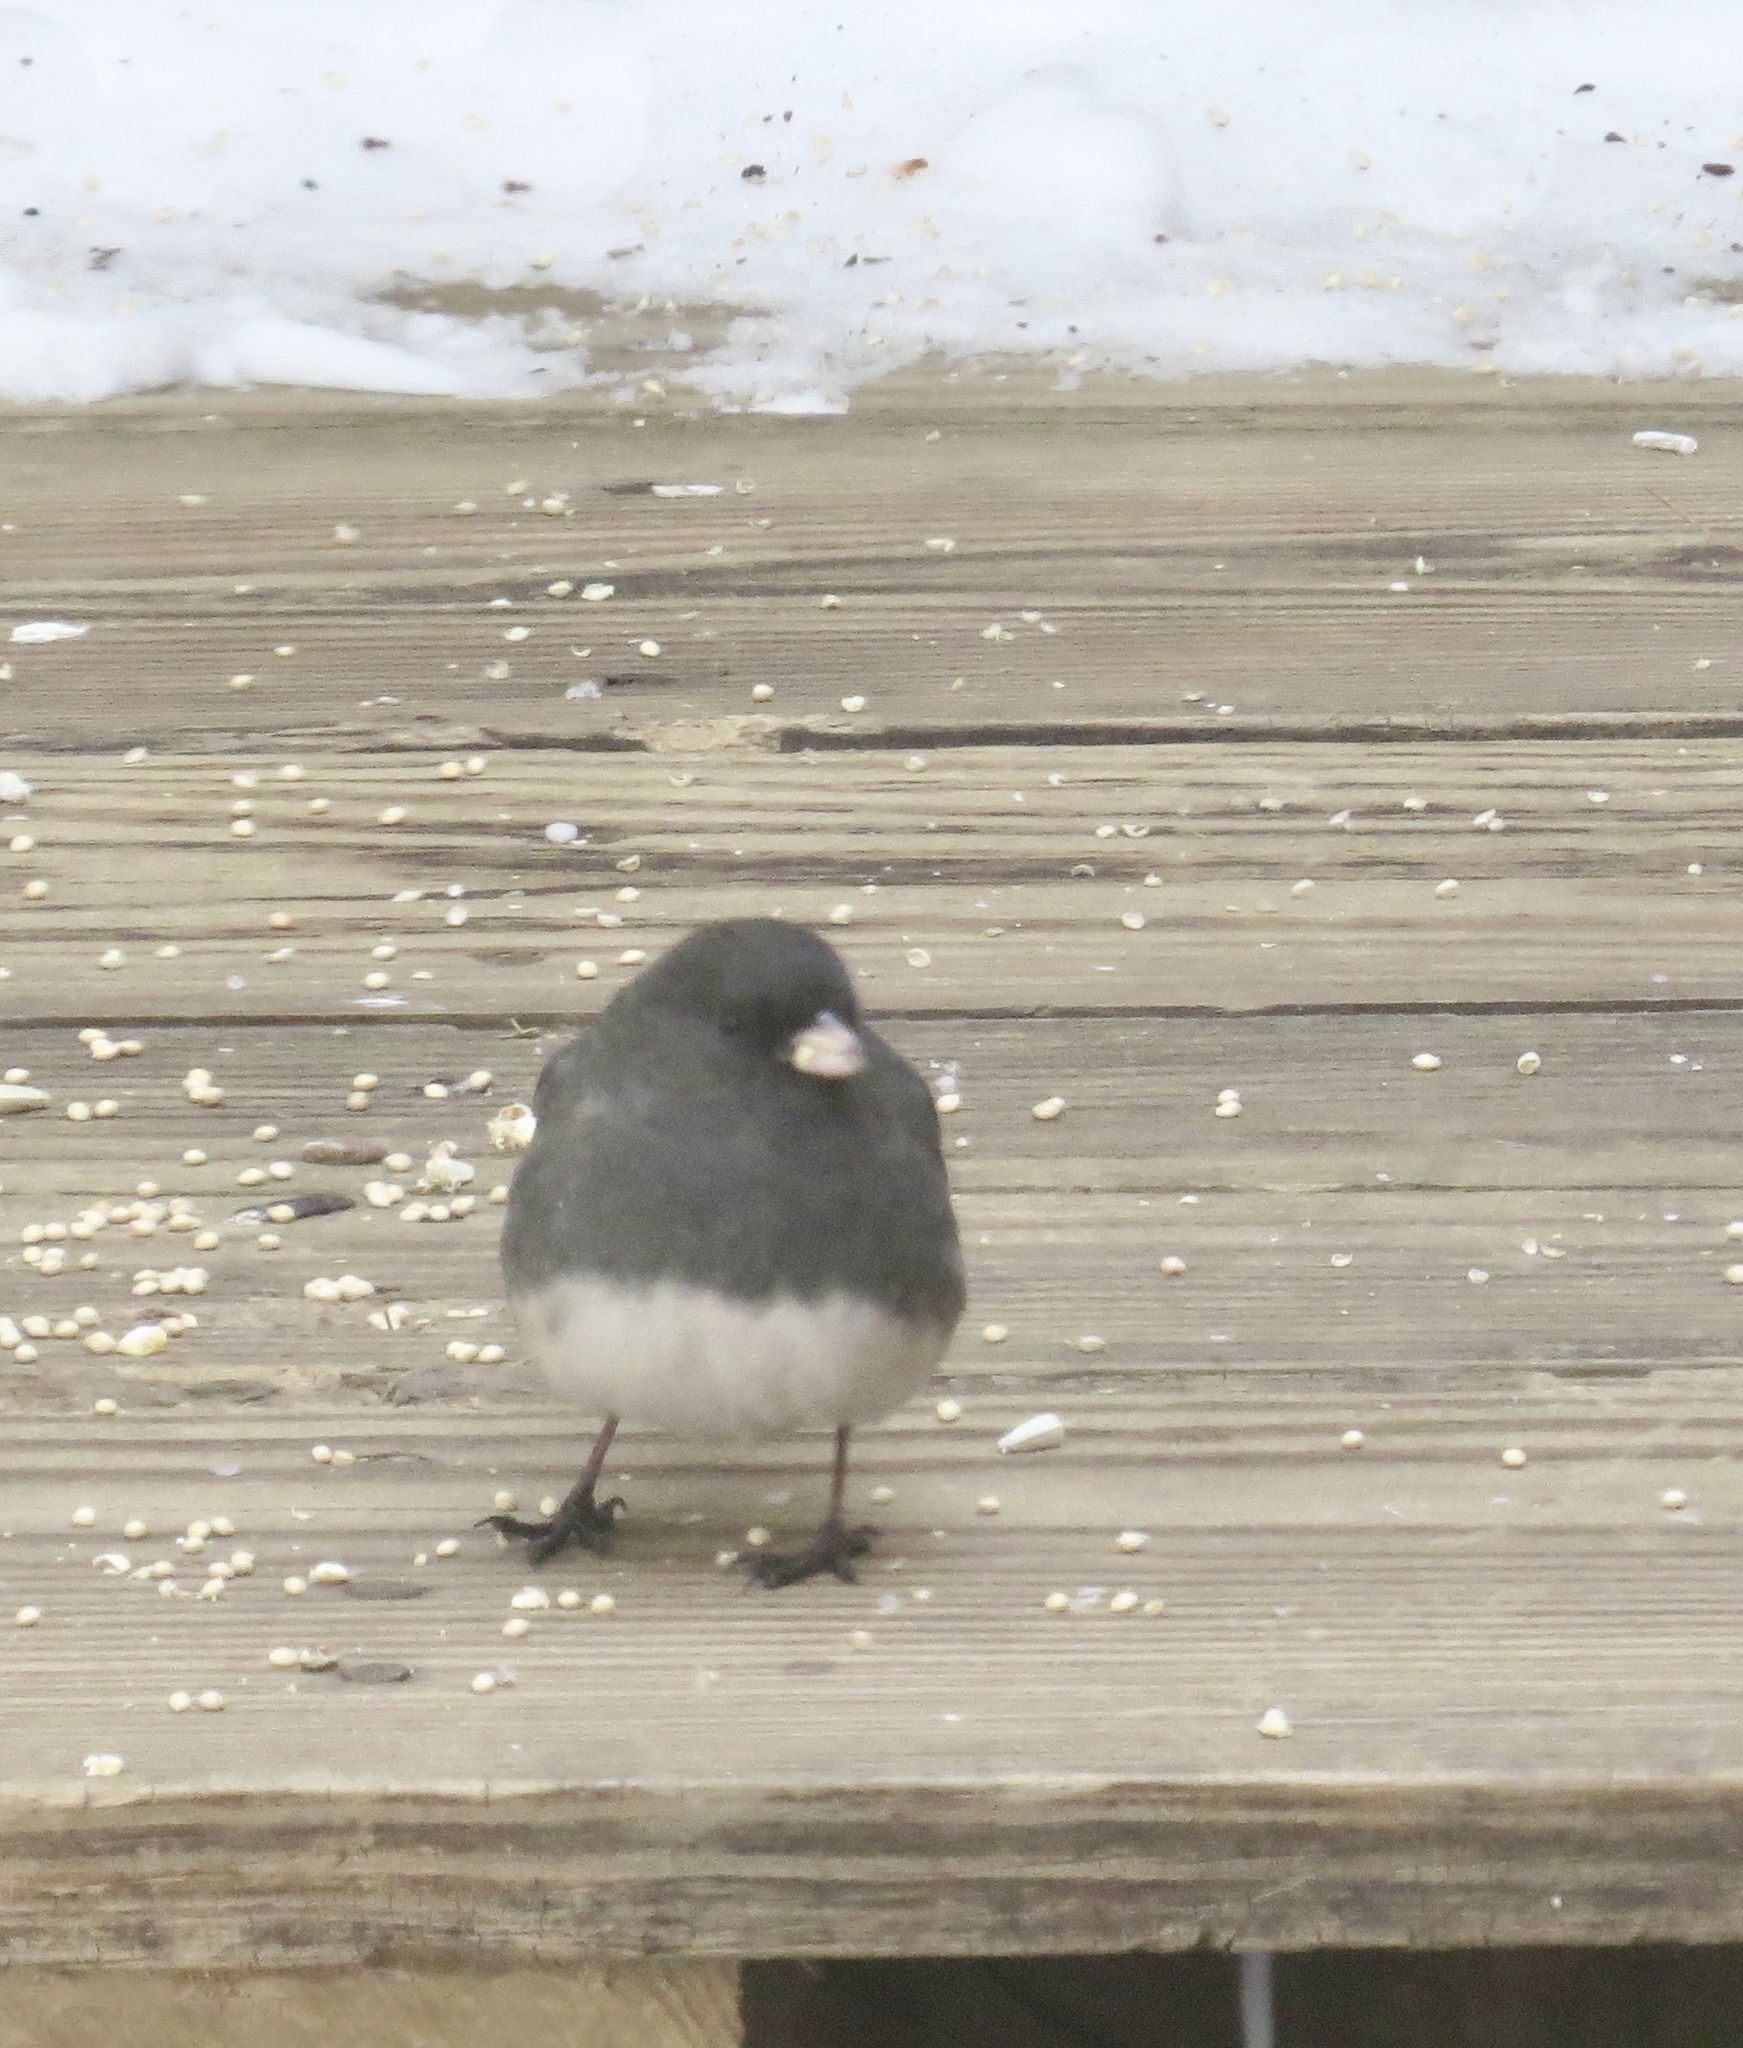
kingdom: Animalia
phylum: Chordata
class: Aves
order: Passeriformes
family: Passerellidae
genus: Junco
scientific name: Junco hyemalis
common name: Dark-eyed junco
